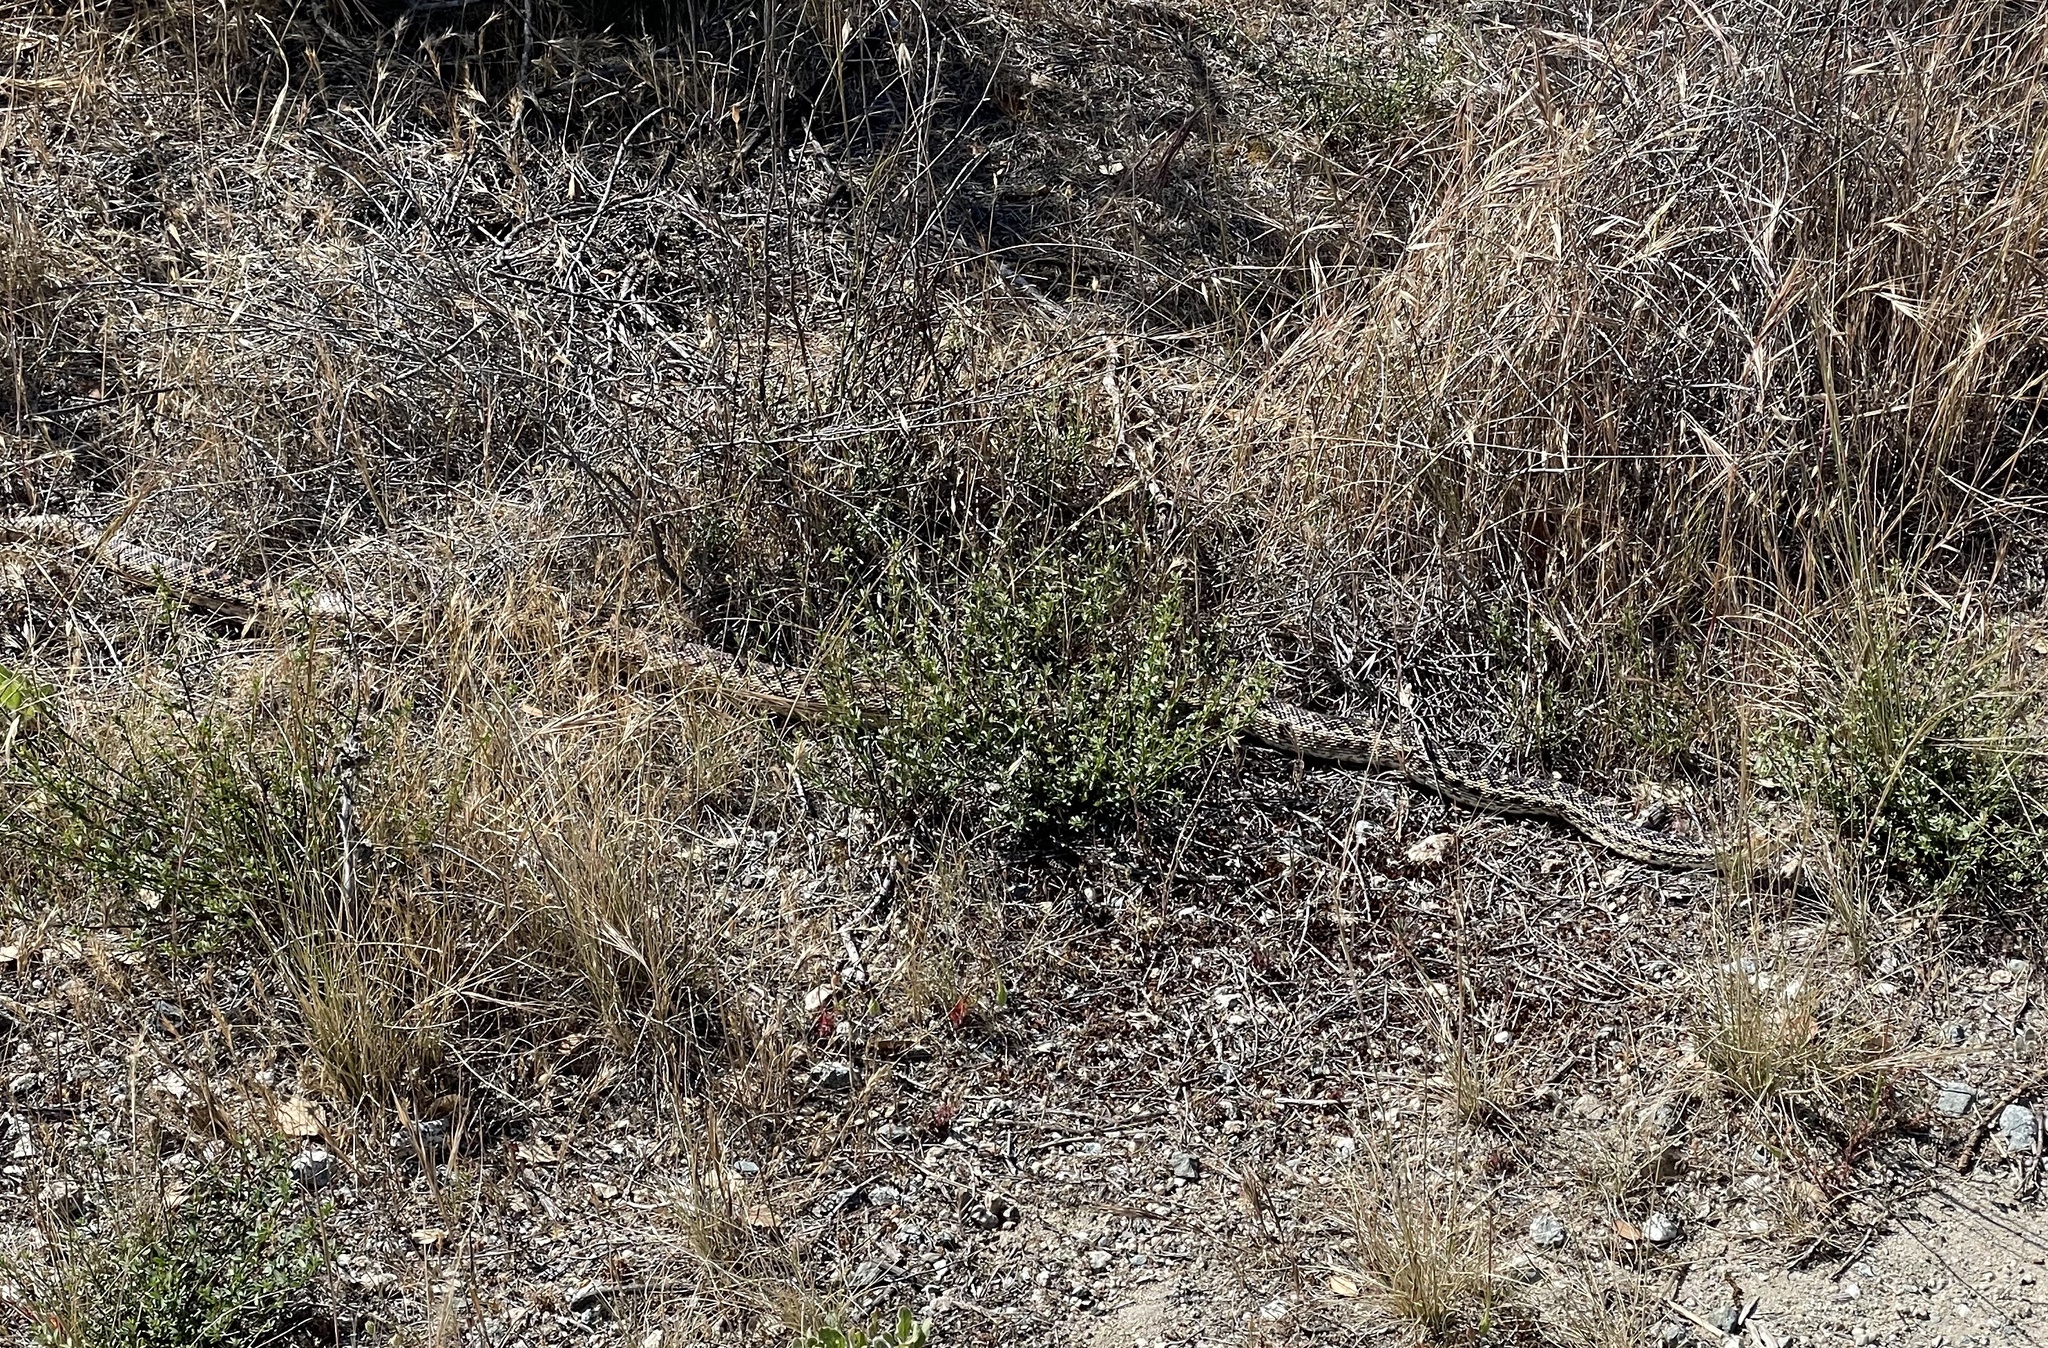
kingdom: Animalia
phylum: Chordata
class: Squamata
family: Colubridae
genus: Pituophis
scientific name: Pituophis catenifer
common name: Gopher snake
